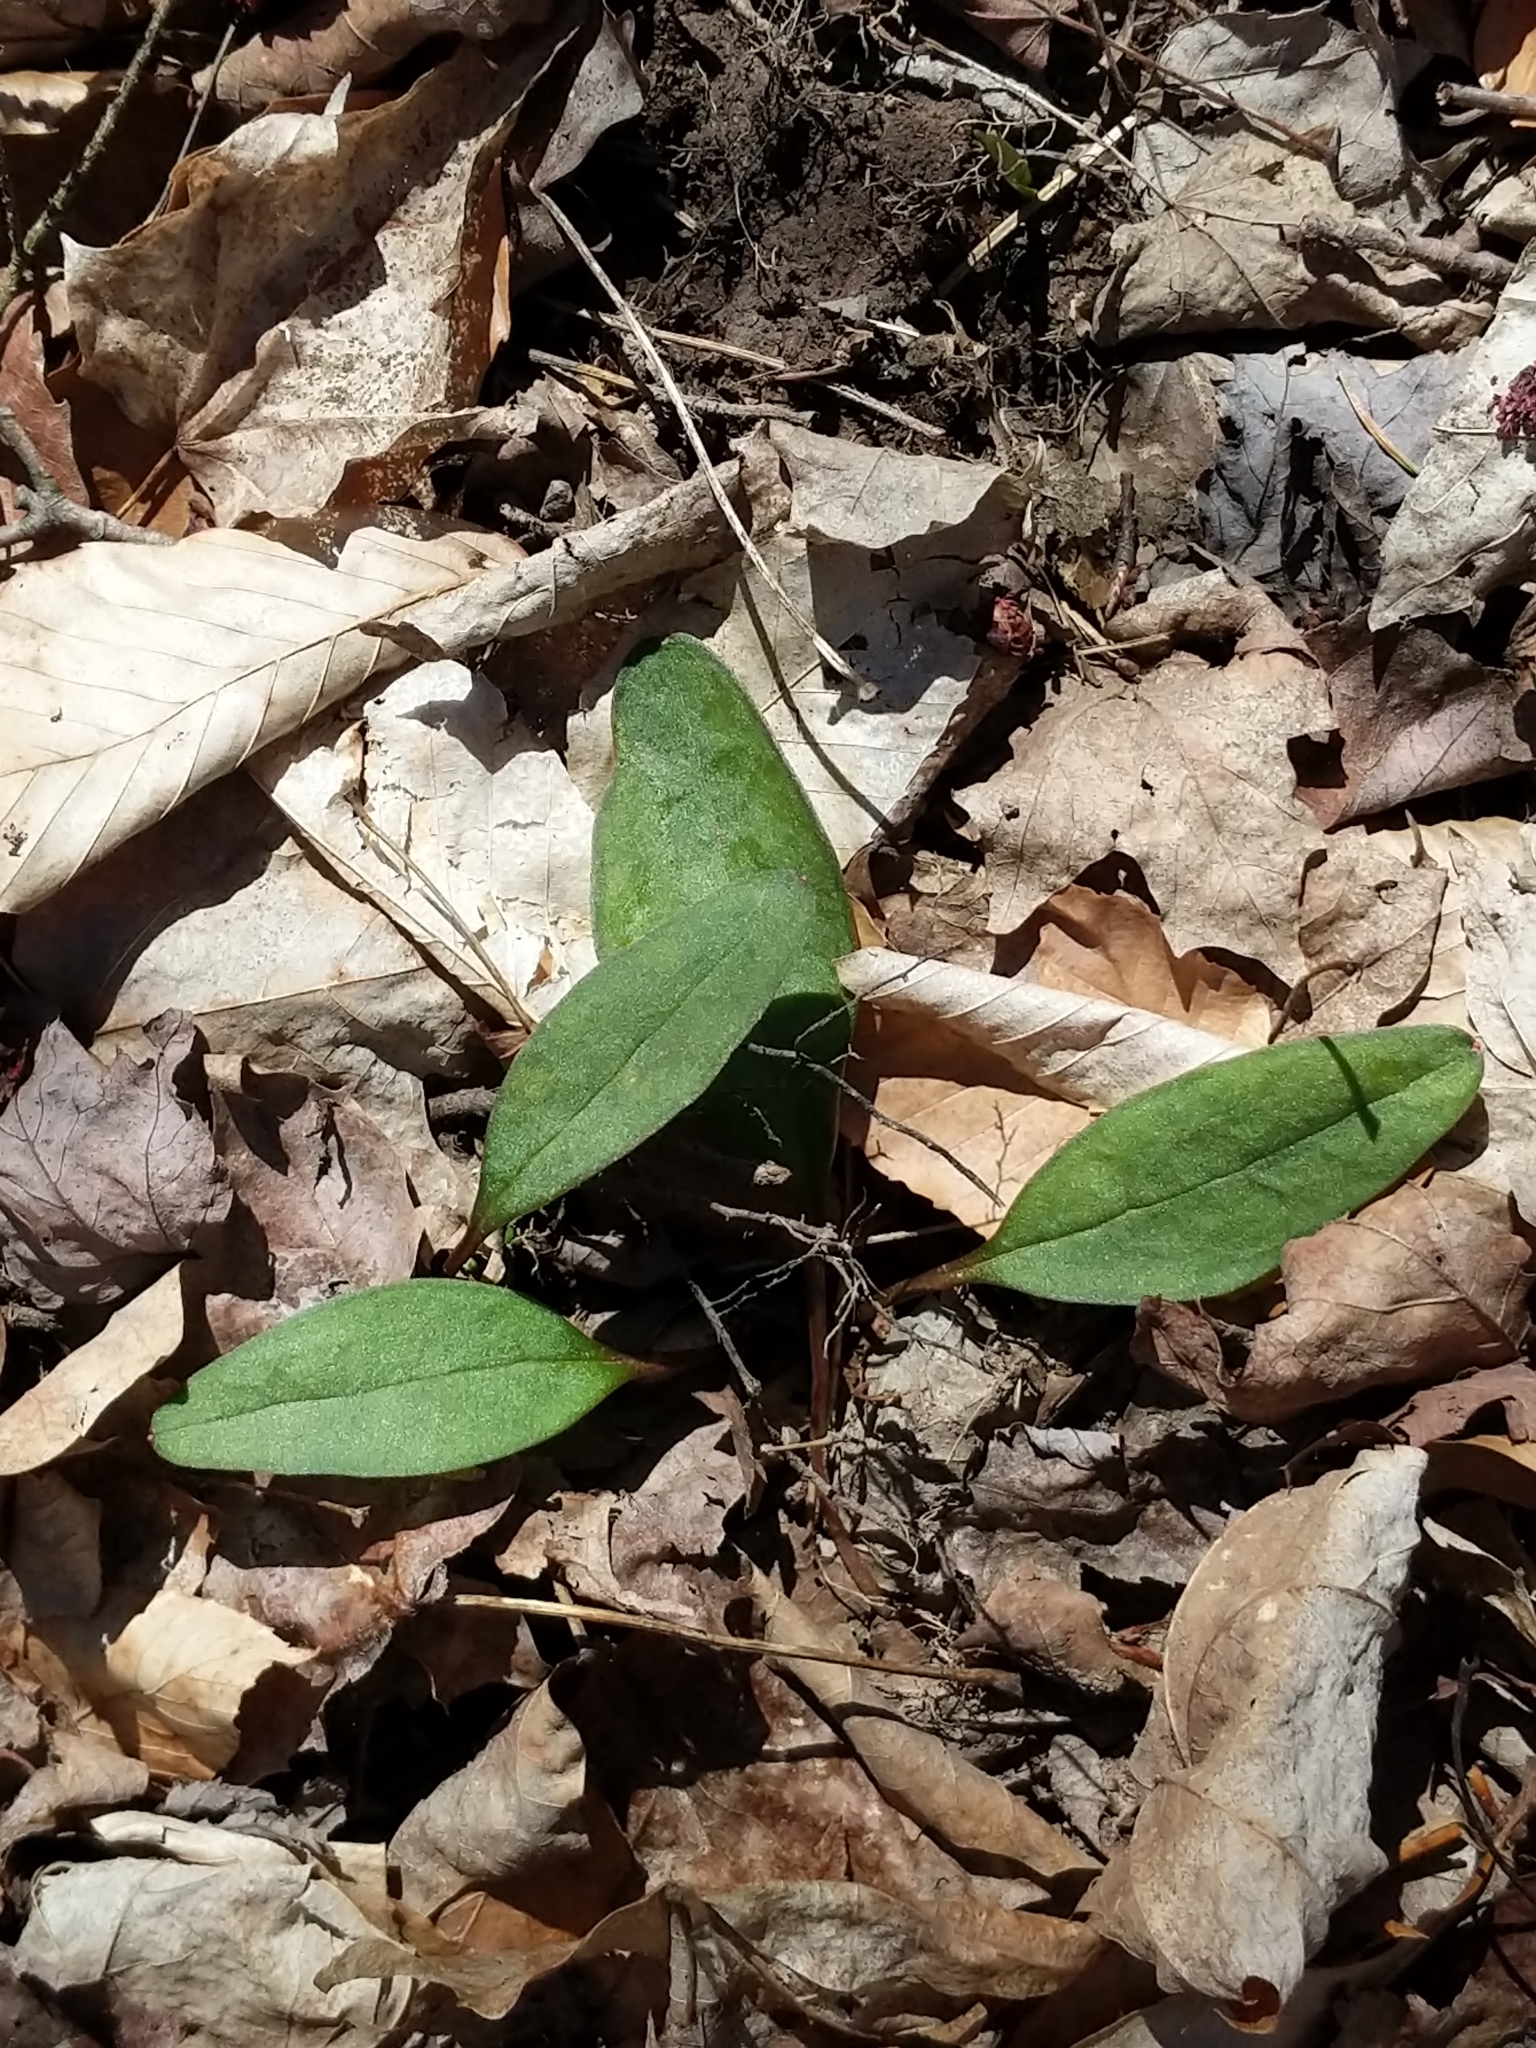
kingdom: Plantae
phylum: Tracheophyta
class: Magnoliopsida
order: Caryophyllales
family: Montiaceae
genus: Claytonia
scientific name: Claytonia caroliniana
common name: Carolina spring beauty
